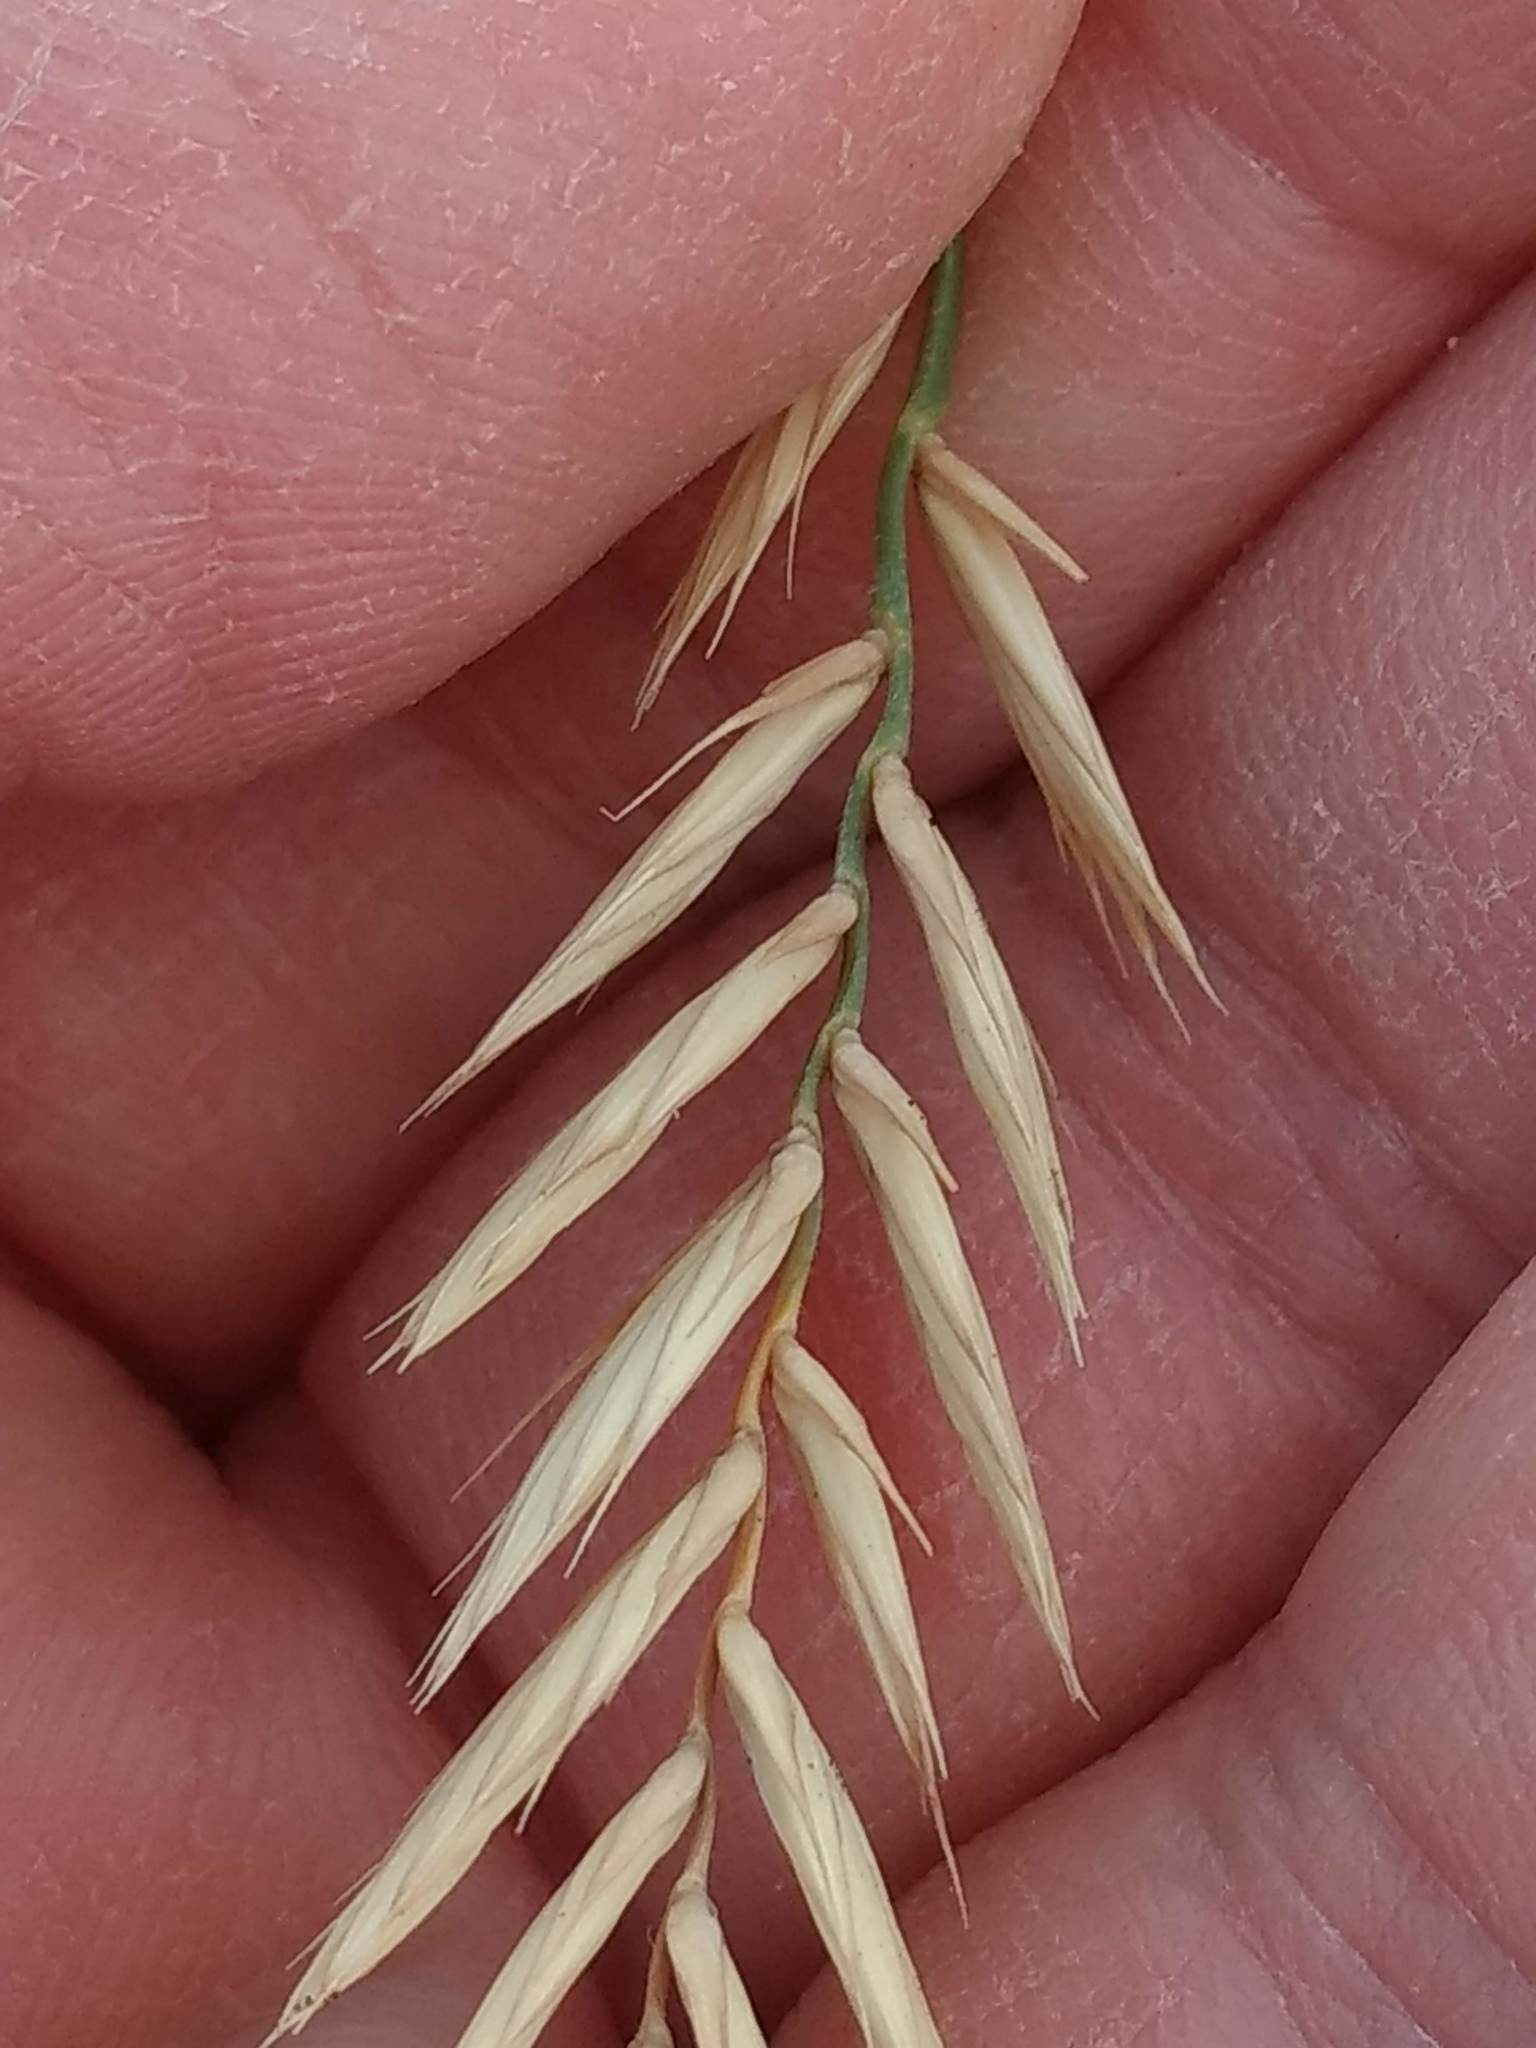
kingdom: Plantae
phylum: Tracheophyta
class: Liliopsida
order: Poales
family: Poaceae
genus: Agropyron
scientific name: Agropyron cristatum
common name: Crested wheatgrass
